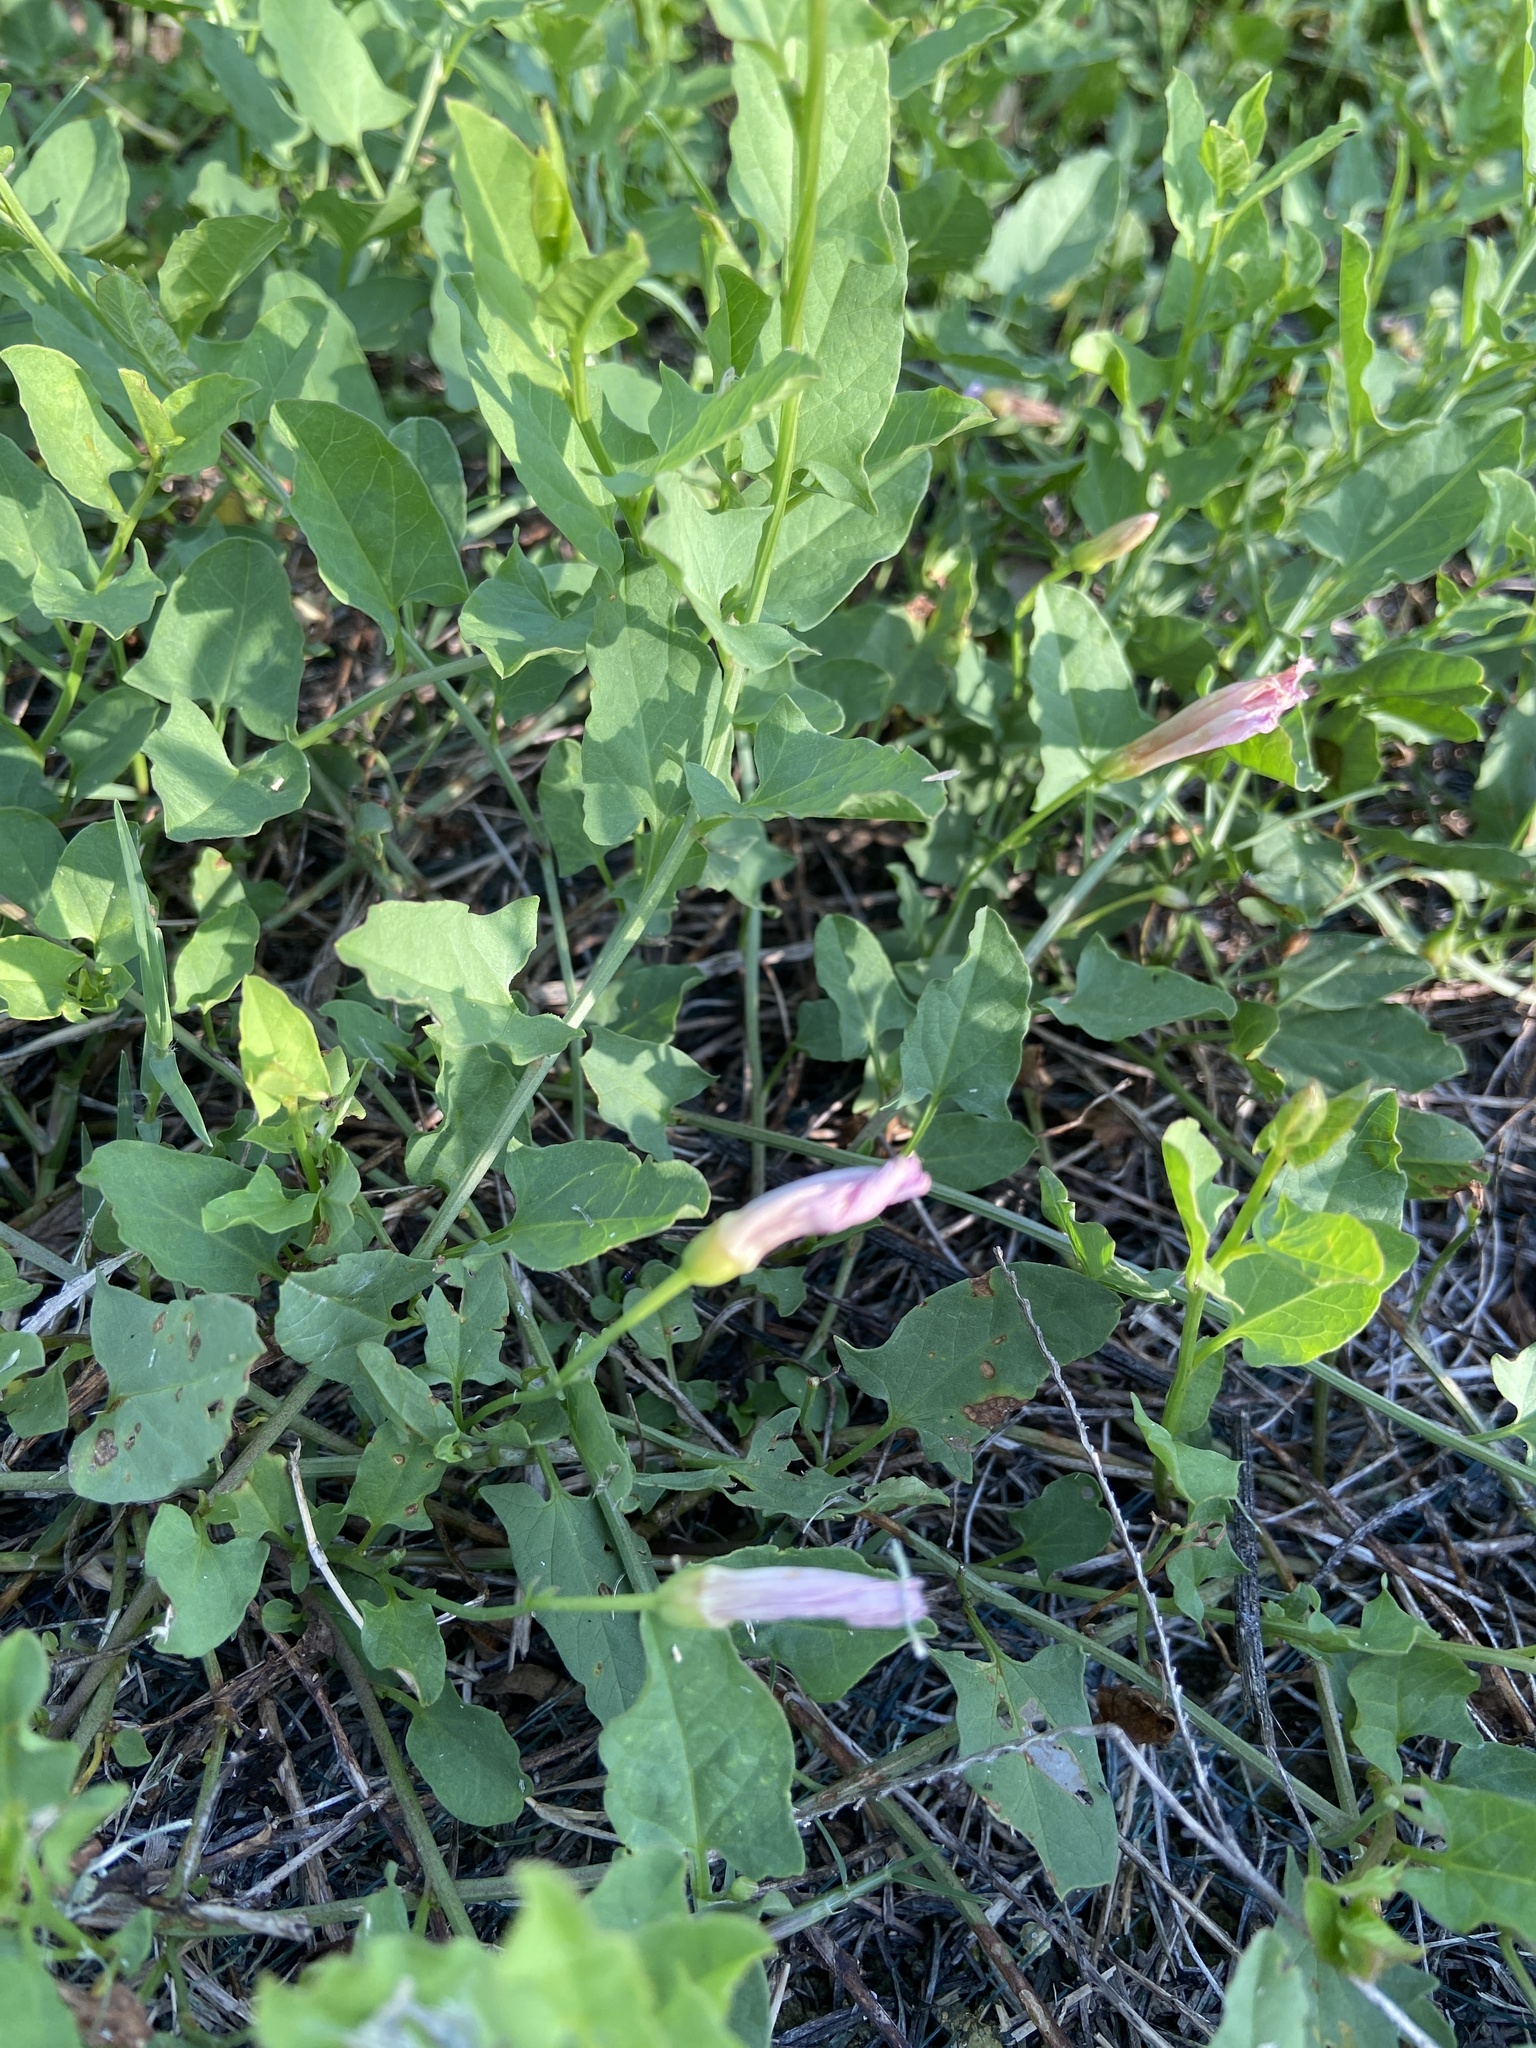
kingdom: Plantae
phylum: Tracheophyta
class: Magnoliopsida
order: Solanales
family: Convolvulaceae
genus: Convolvulus
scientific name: Convolvulus arvensis
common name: Field bindweed
